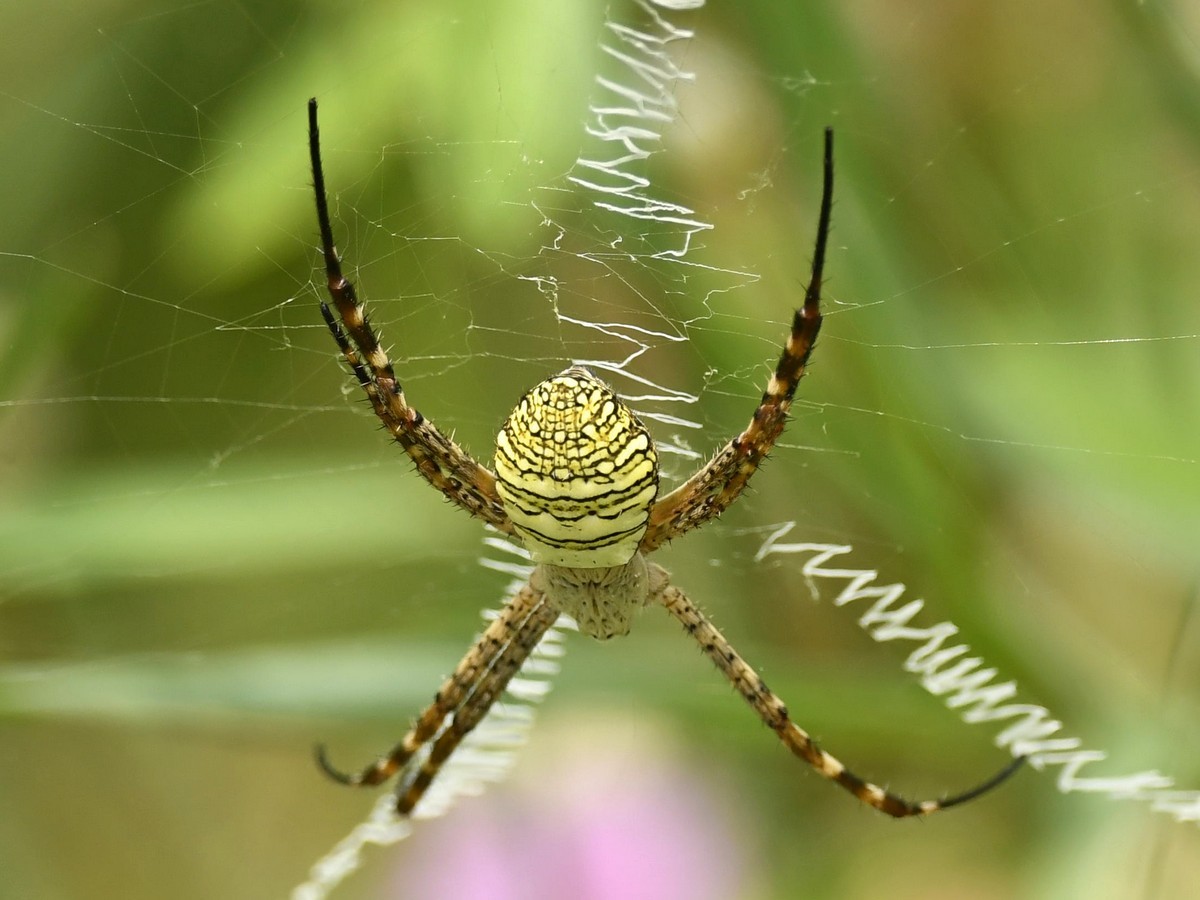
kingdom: Animalia
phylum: Arthropoda
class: Arachnida
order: Araneae
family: Araneidae
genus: Argiope
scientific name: Argiope aemula
